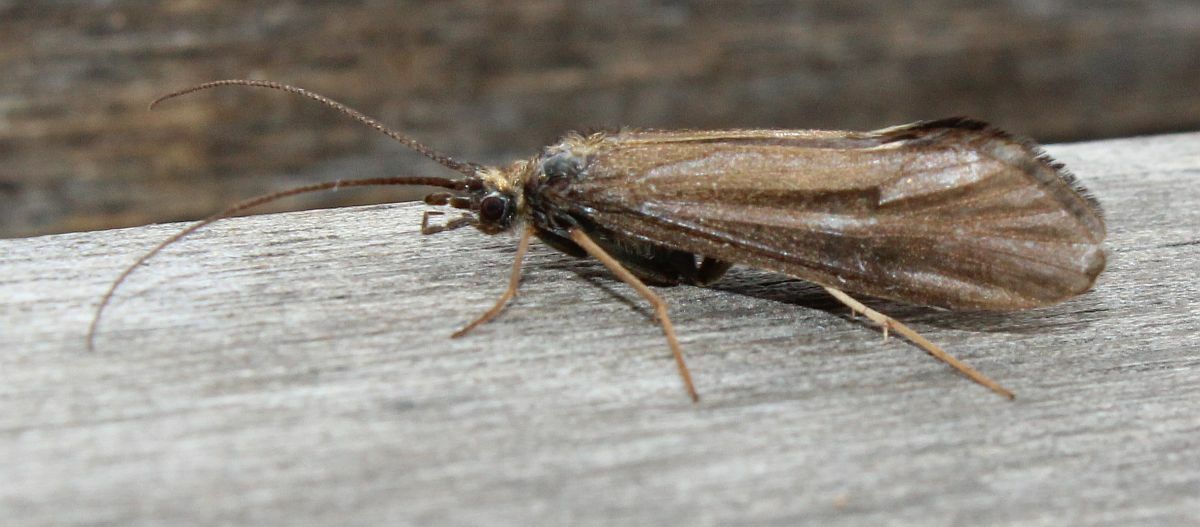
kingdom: Animalia
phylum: Arthropoda
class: Insecta
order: Trichoptera
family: Sericostomatidae
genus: Sericostoma
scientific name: Sericostoma personatum
